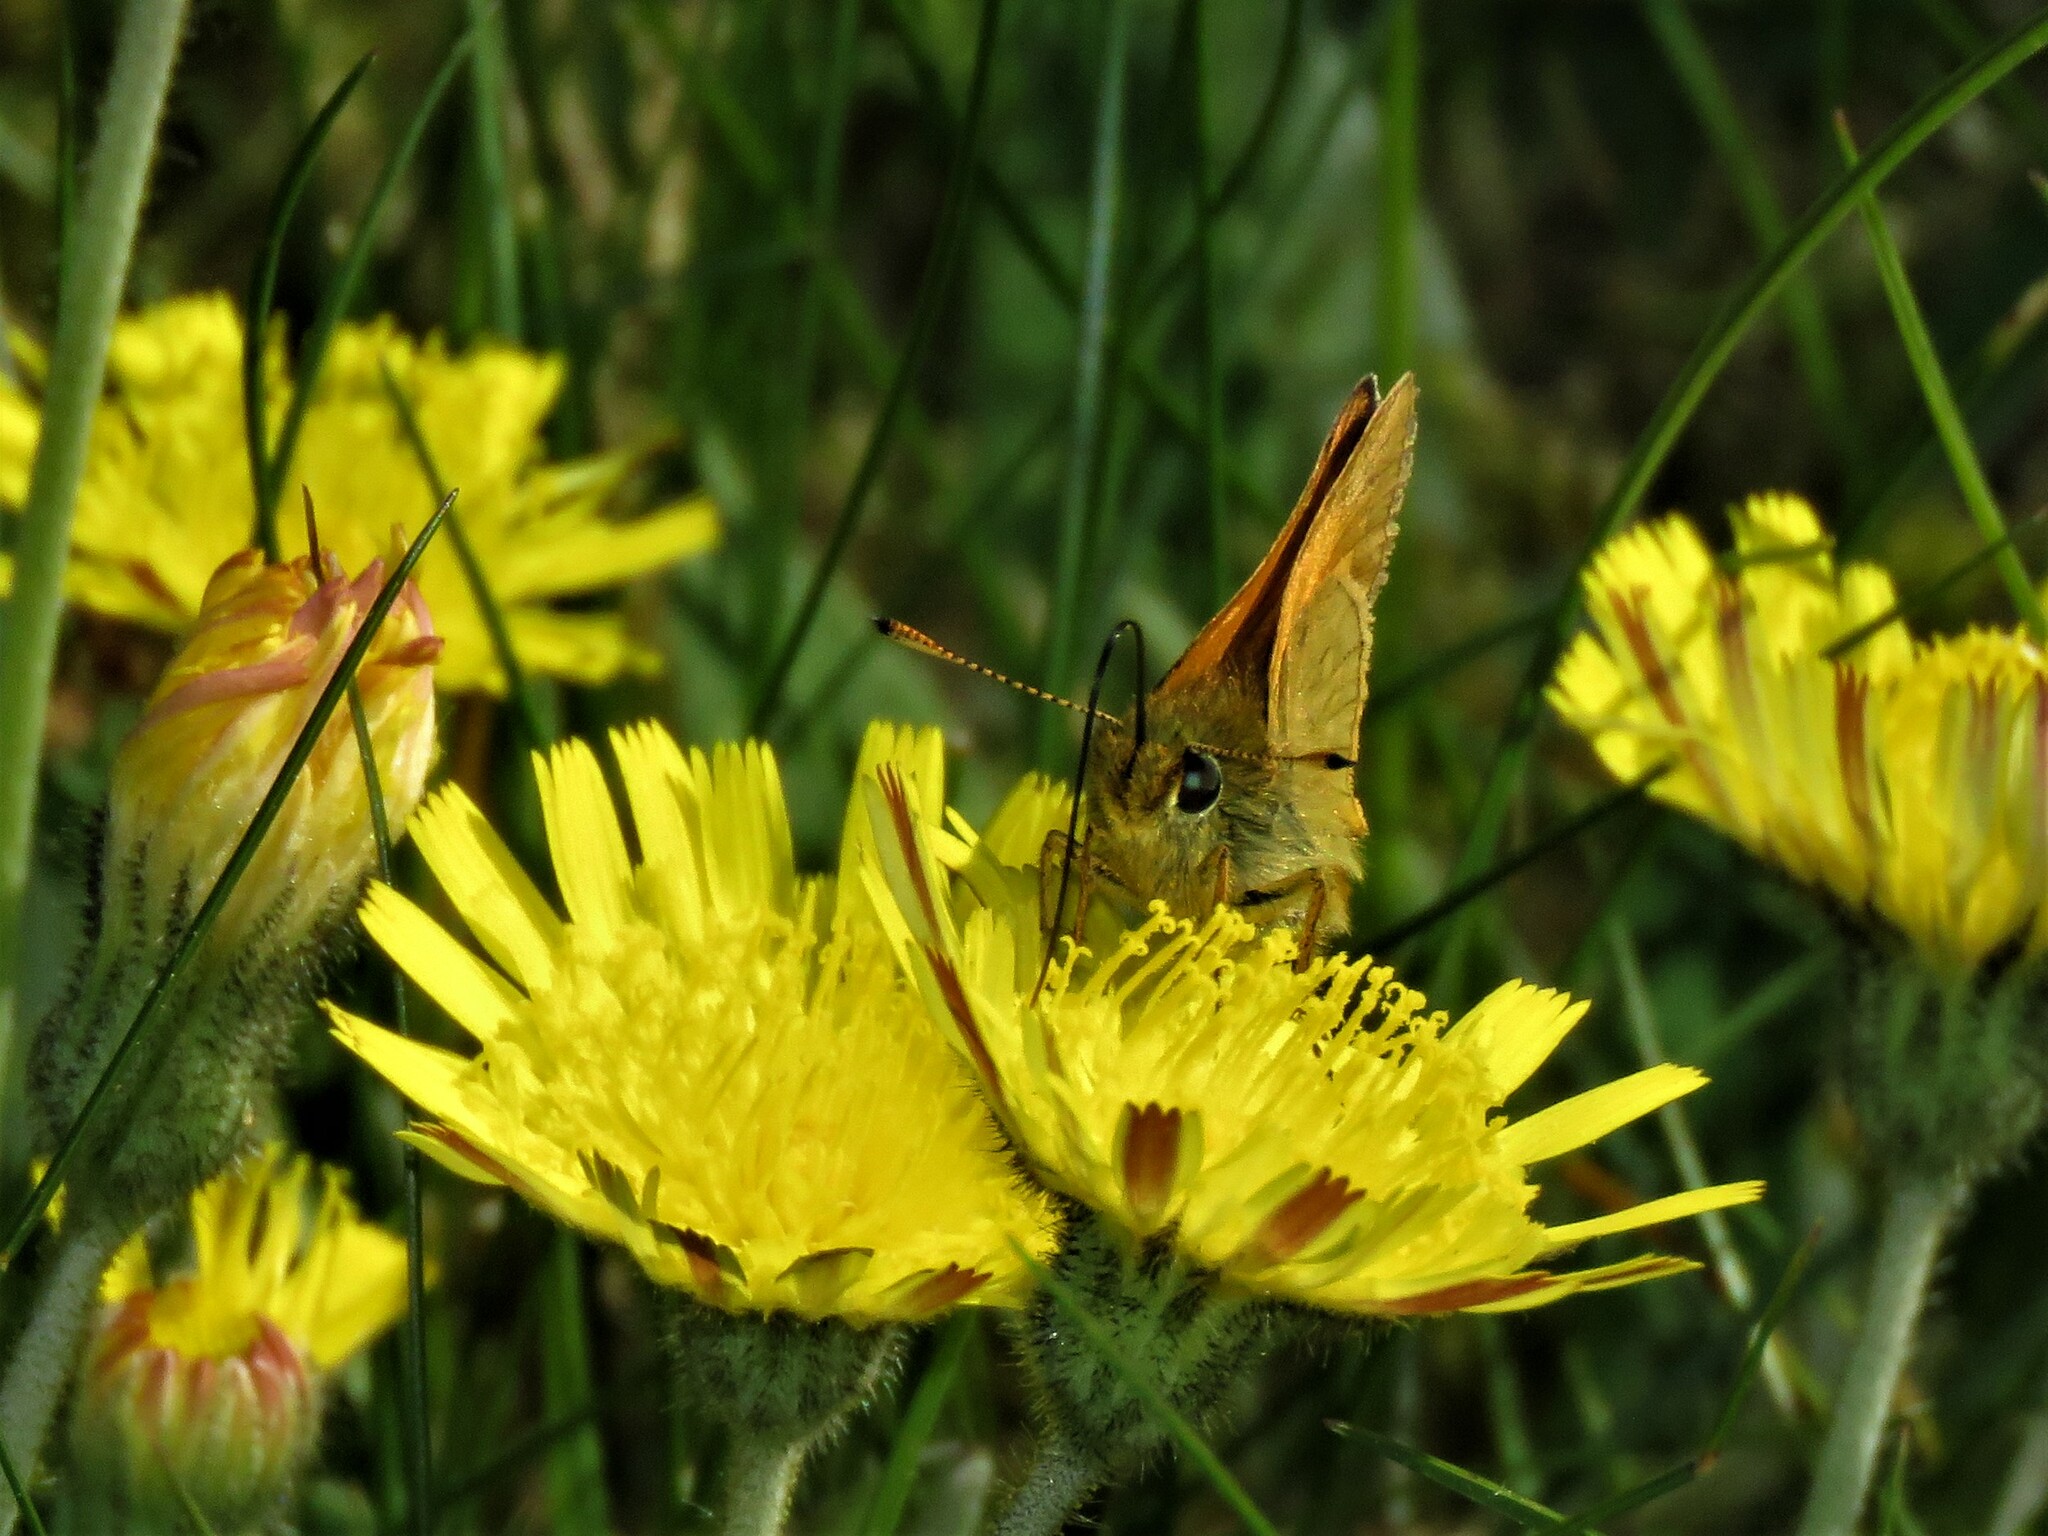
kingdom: Animalia
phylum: Arthropoda
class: Insecta
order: Lepidoptera
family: Hesperiidae
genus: Ochlodes
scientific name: Ochlodes venata
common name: Large skipper
